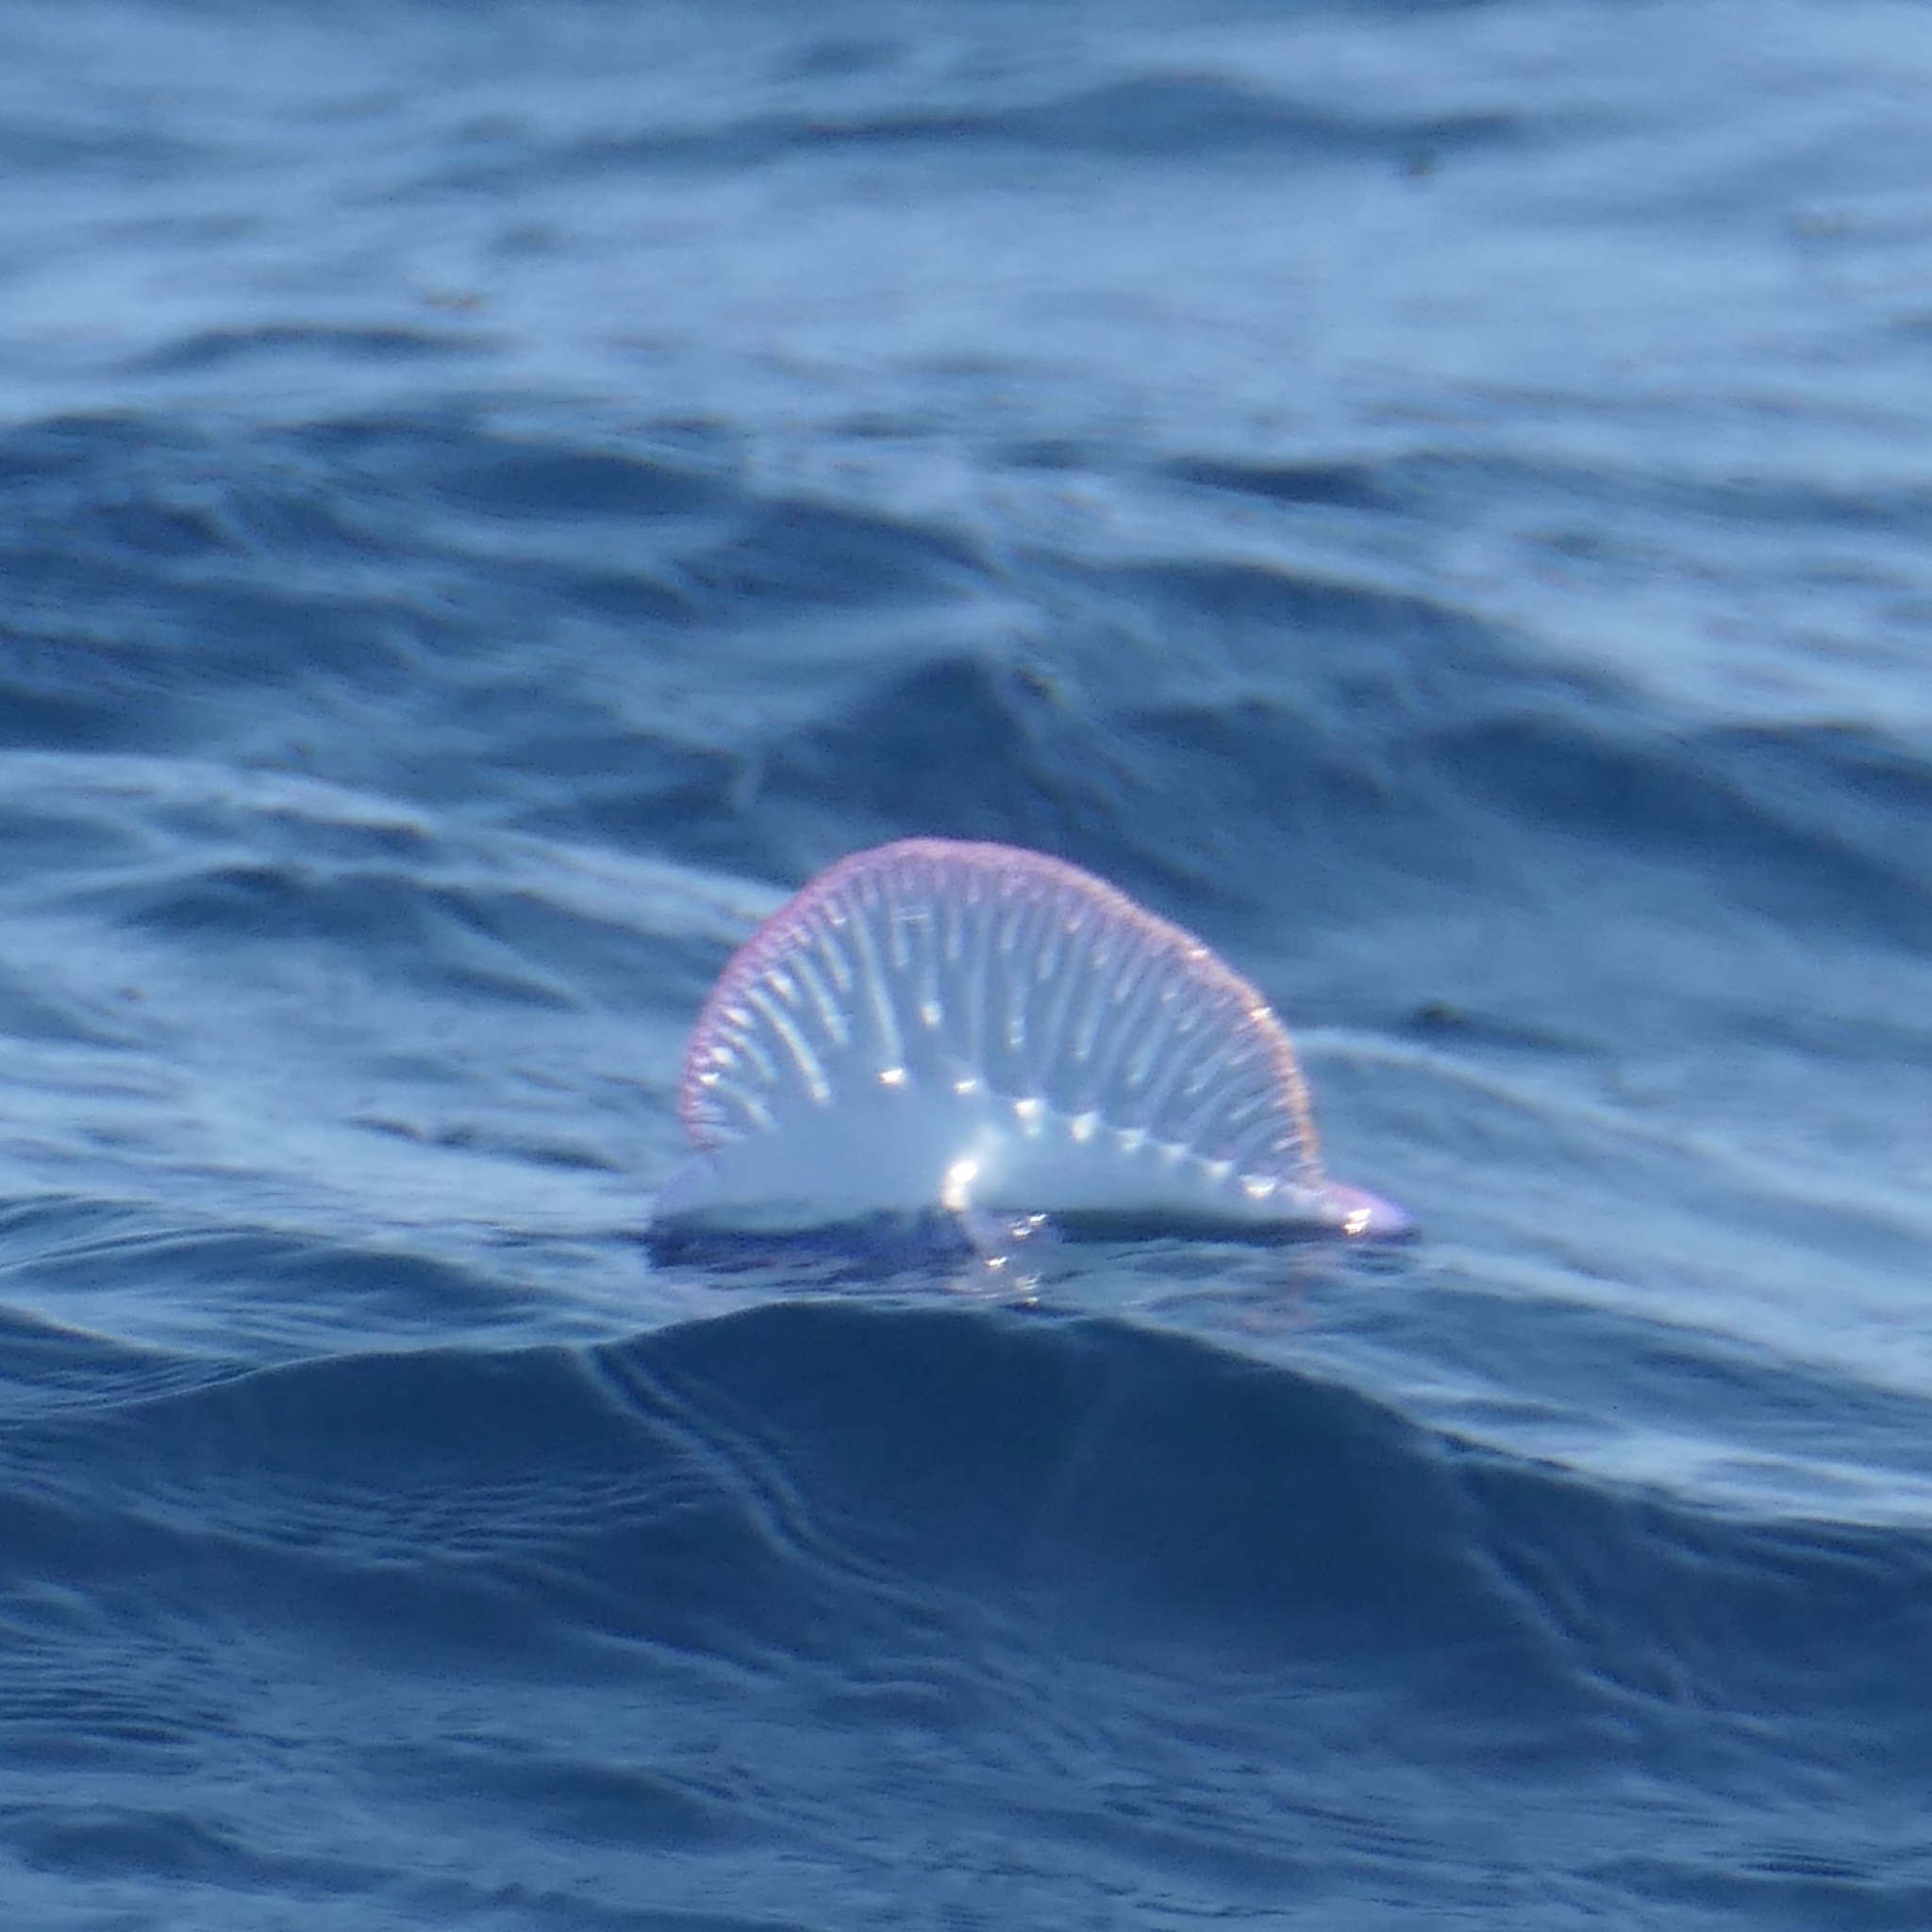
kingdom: Animalia
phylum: Cnidaria
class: Hydrozoa
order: Siphonophorae
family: Physaliidae
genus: Physalia
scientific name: Physalia physalis
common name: Portuguese man-of-war
